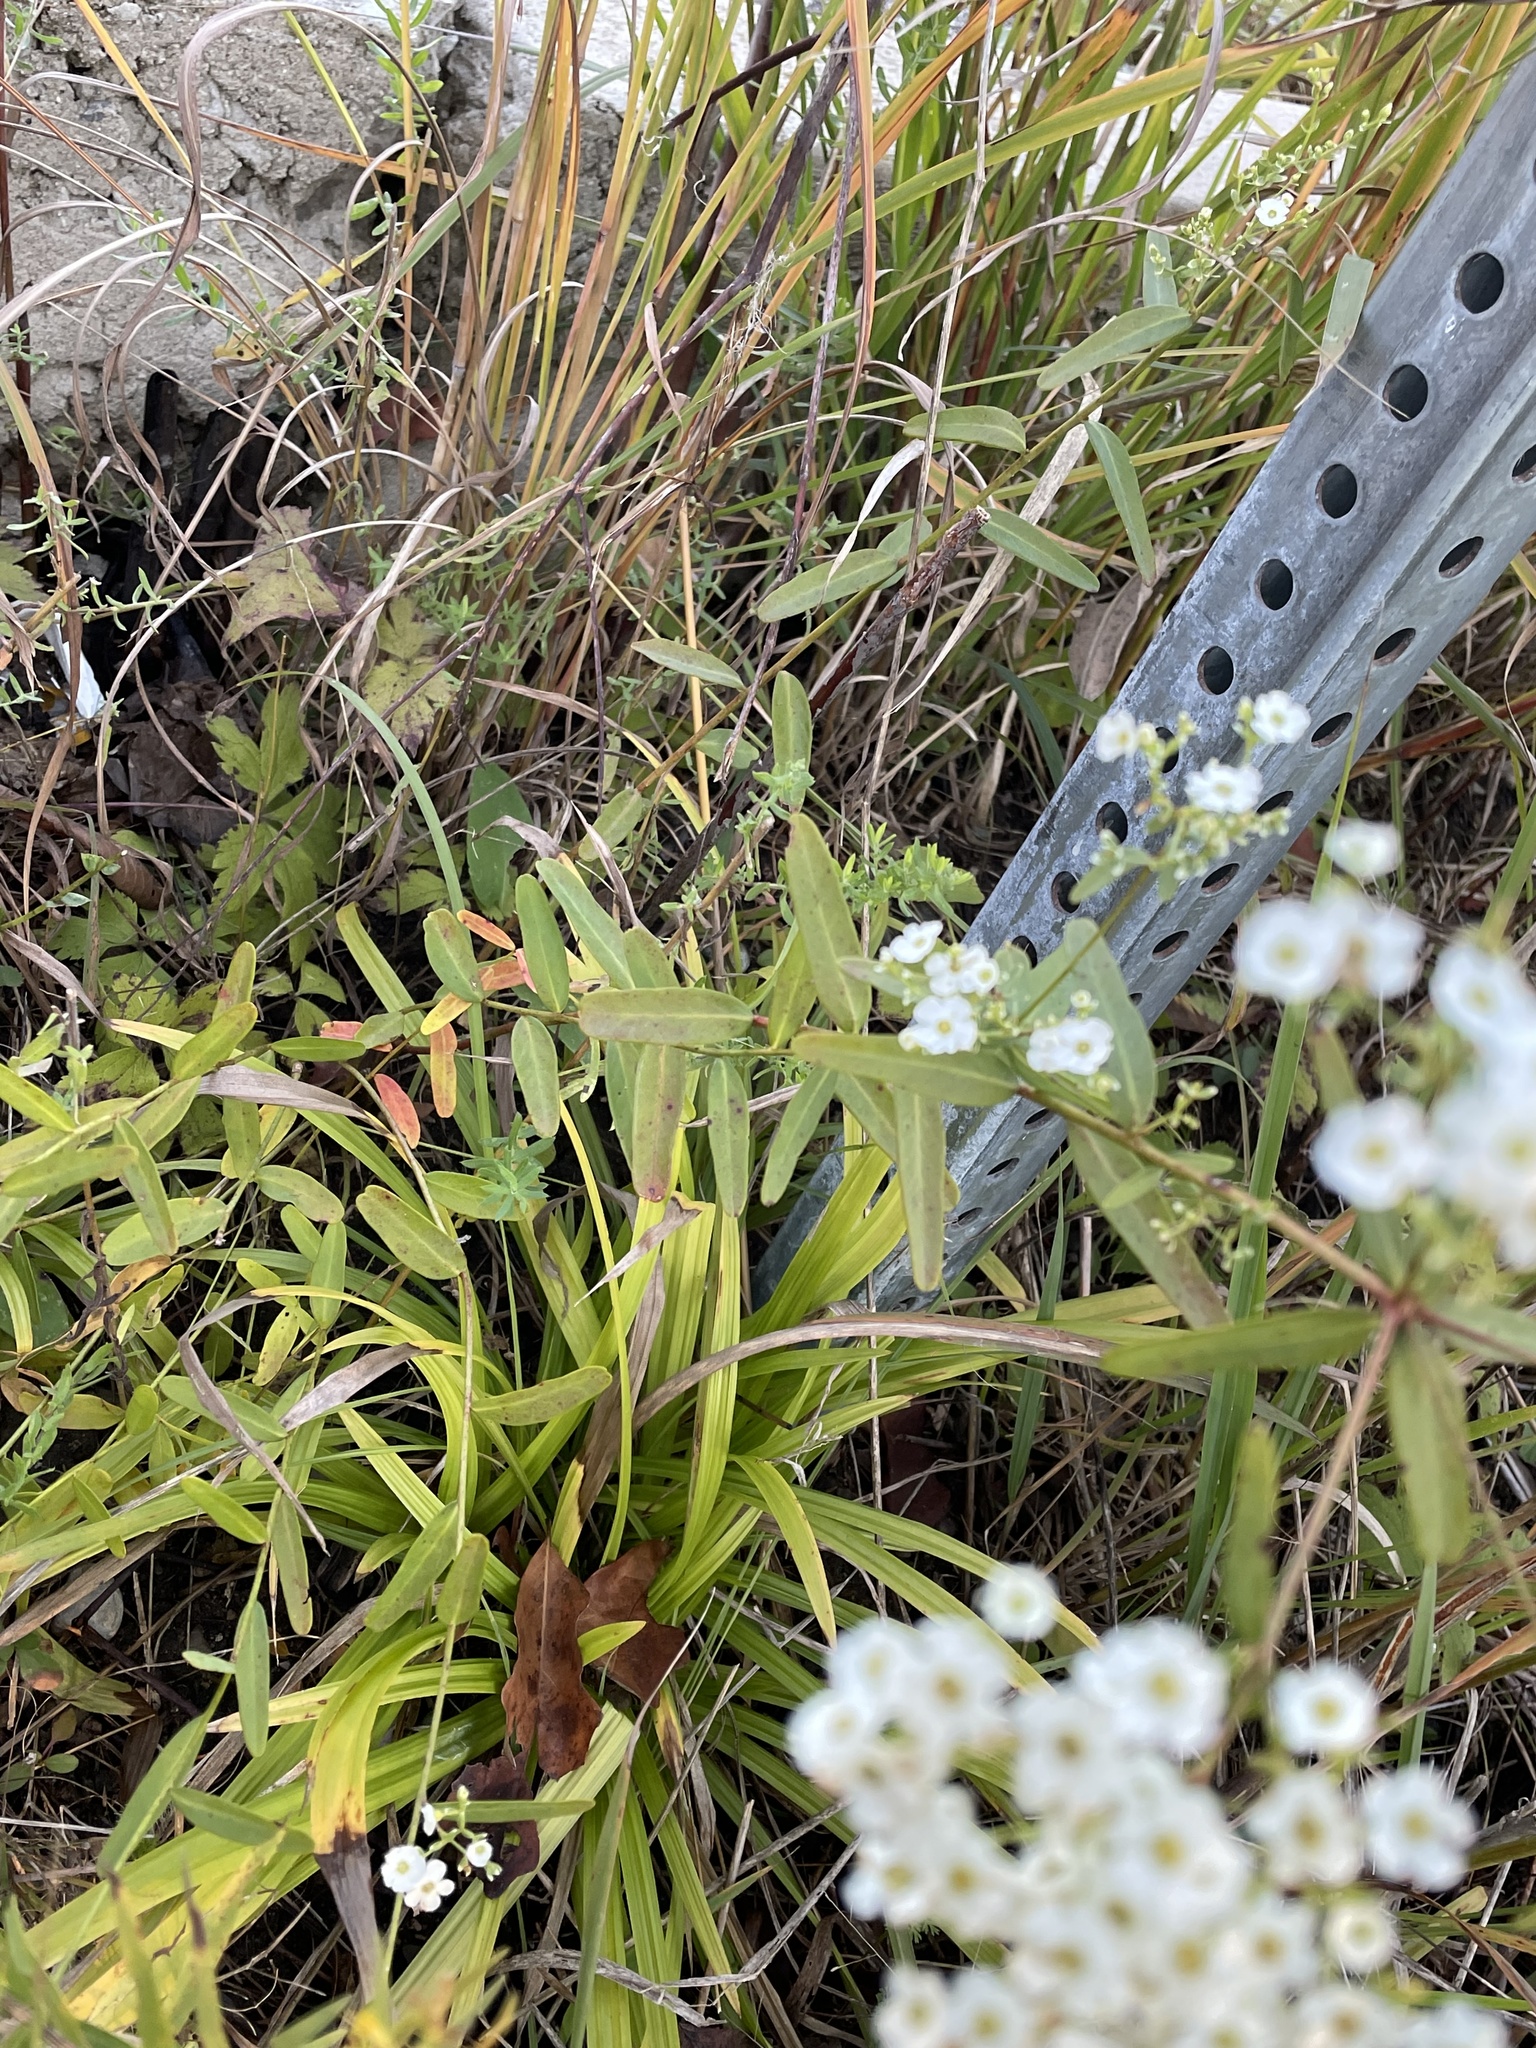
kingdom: Plantae
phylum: Tracheophyta
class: Magnoliopsida
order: Malpighiales
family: Euphorbiaceae
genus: Euphorbia
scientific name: Euphorbia corollata
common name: Flowering spurge
